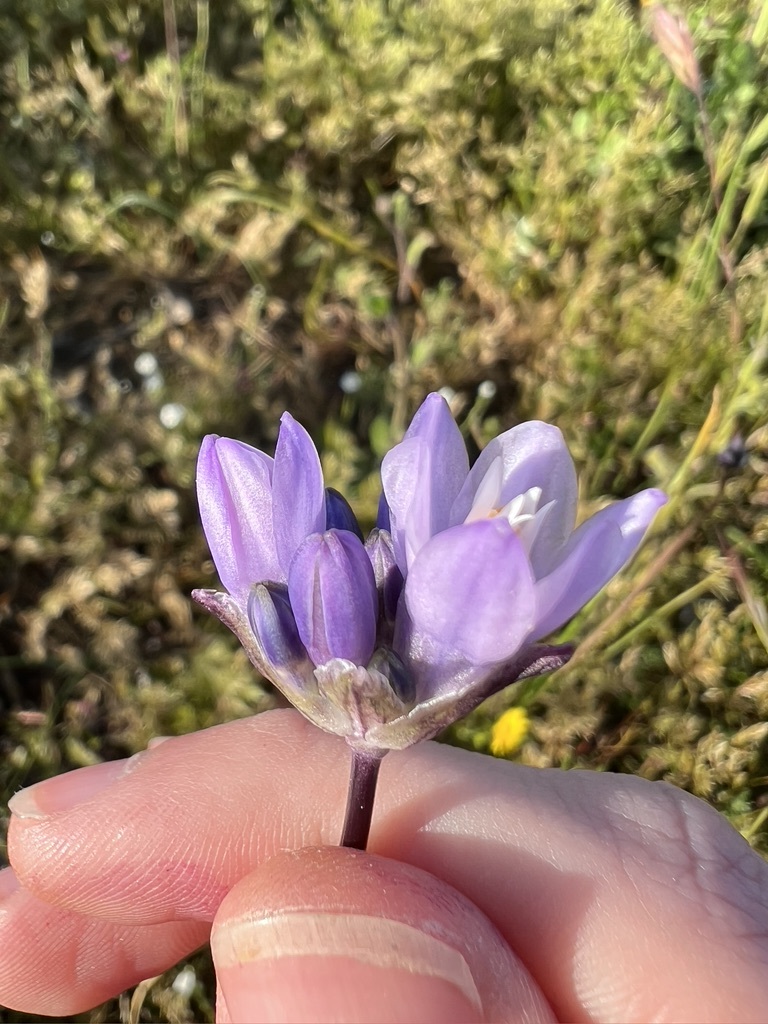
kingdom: Plantae
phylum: Tracheophyta
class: Liliopsida
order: Asparagales
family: Asparagaceae
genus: Dipterostemon
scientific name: Dipterostemon capitatus
